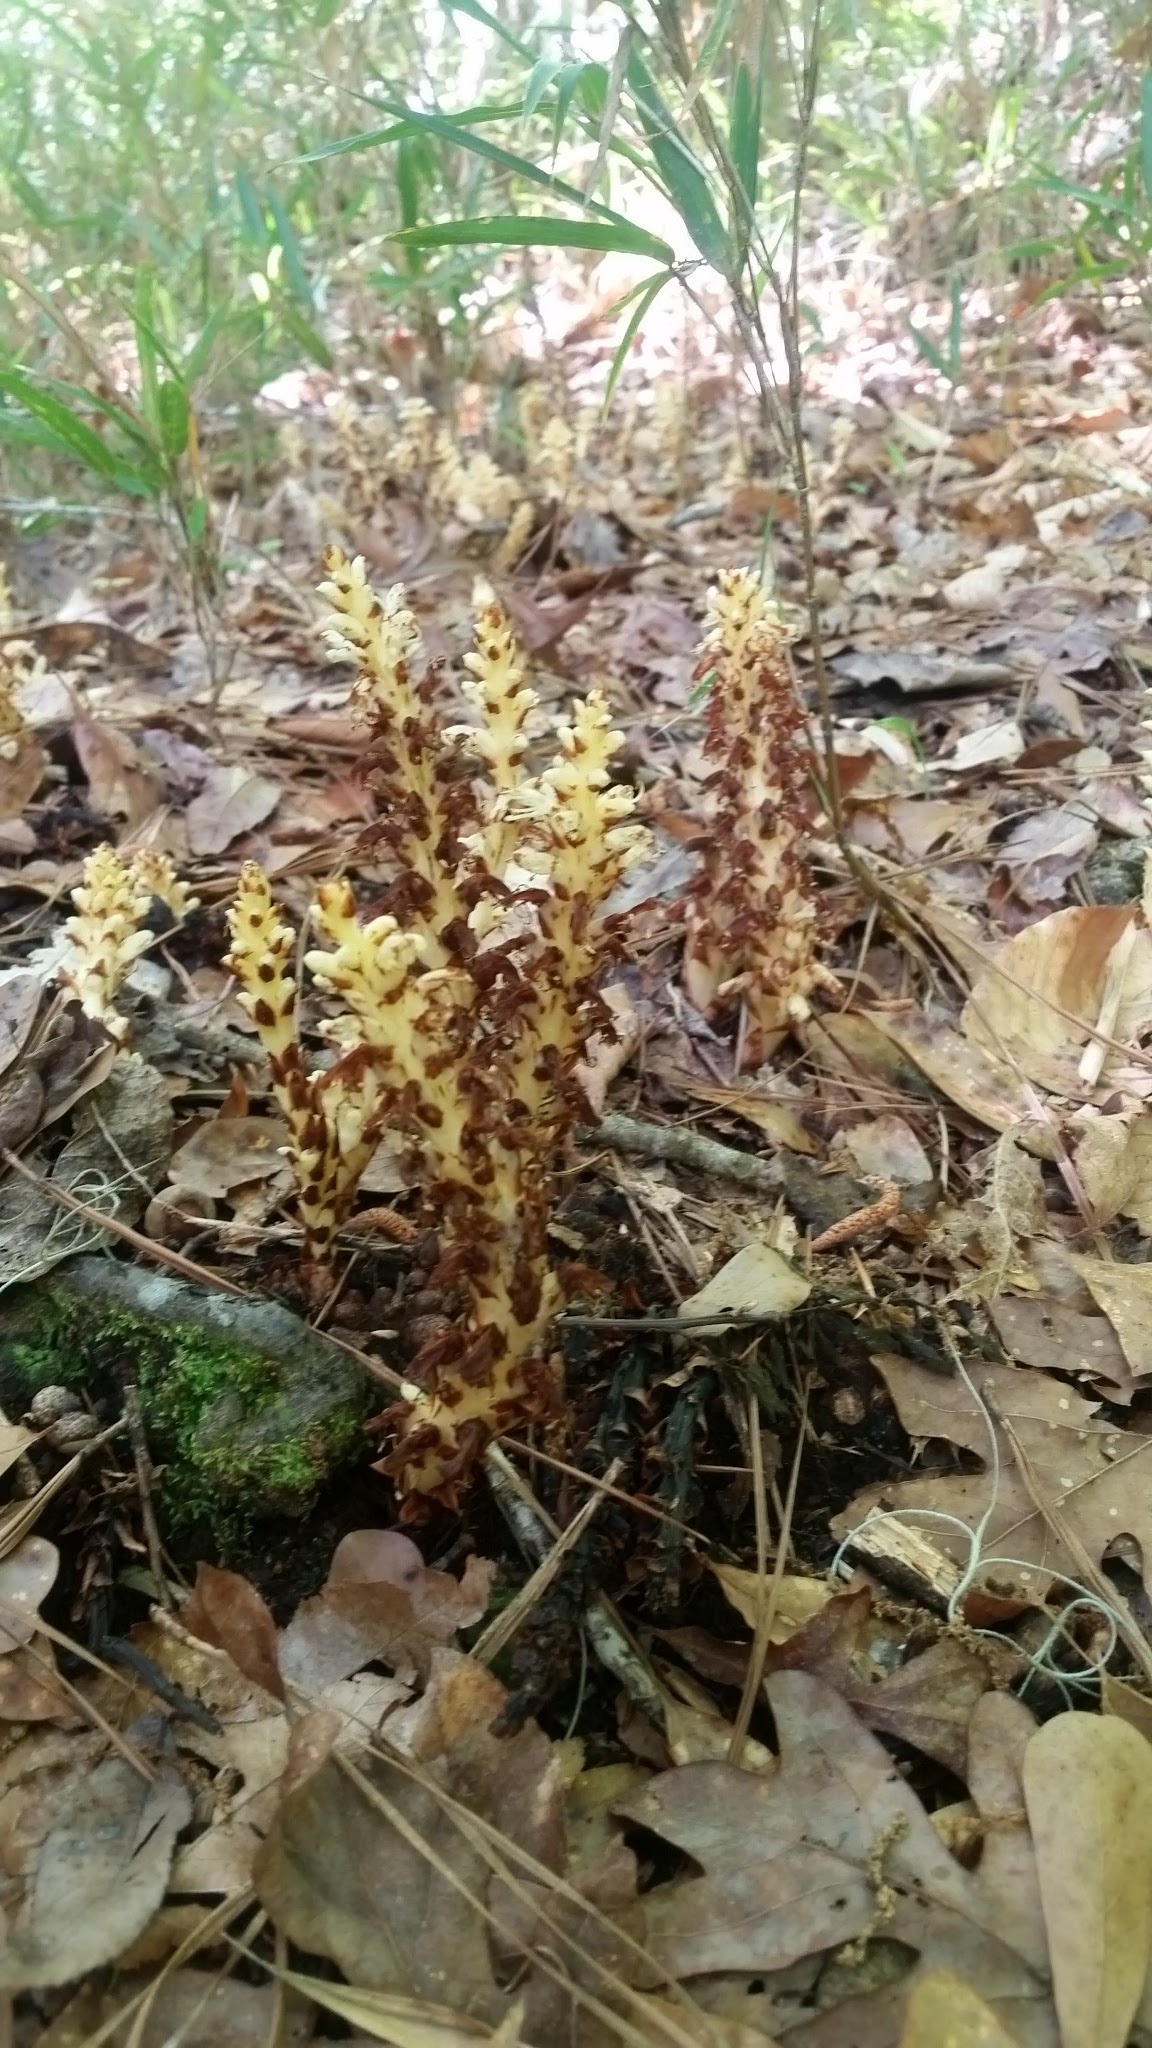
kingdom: Plantae
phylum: Tracheophyta
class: Magnoliopsida
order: Lamiales
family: Orobanchaceae
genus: Conopholis
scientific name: Conopholis americana
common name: American cancer-root
